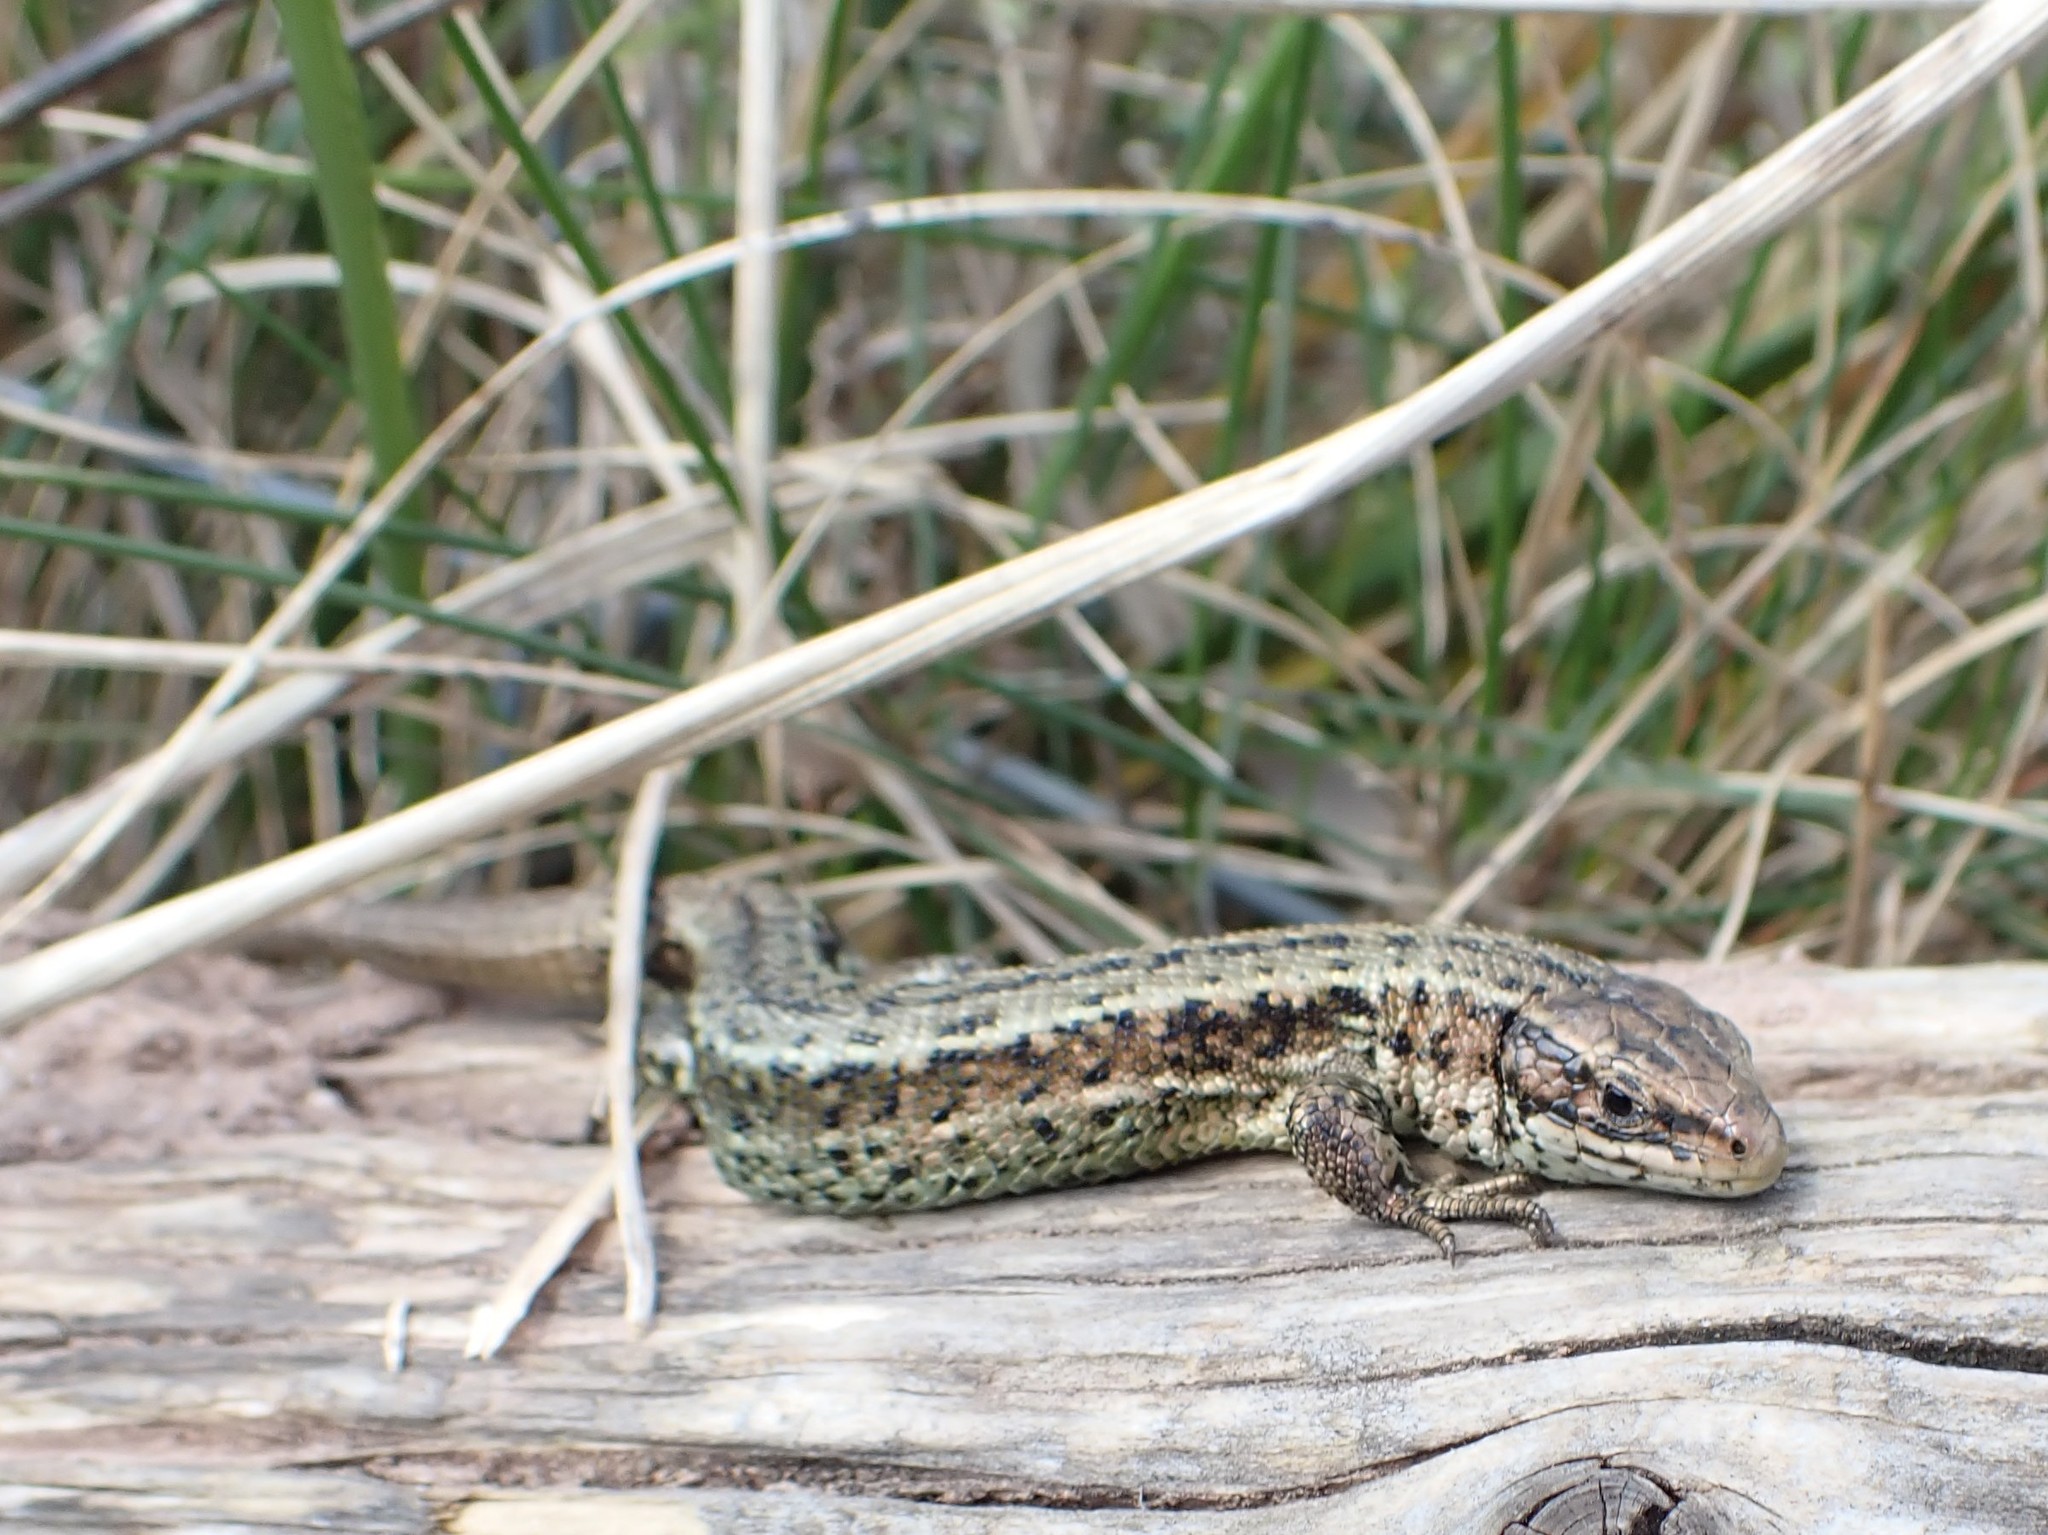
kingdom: Animalia
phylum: Chordata
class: Squamata
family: Lacertidae
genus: Zootoca
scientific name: Zootoca vivipara
